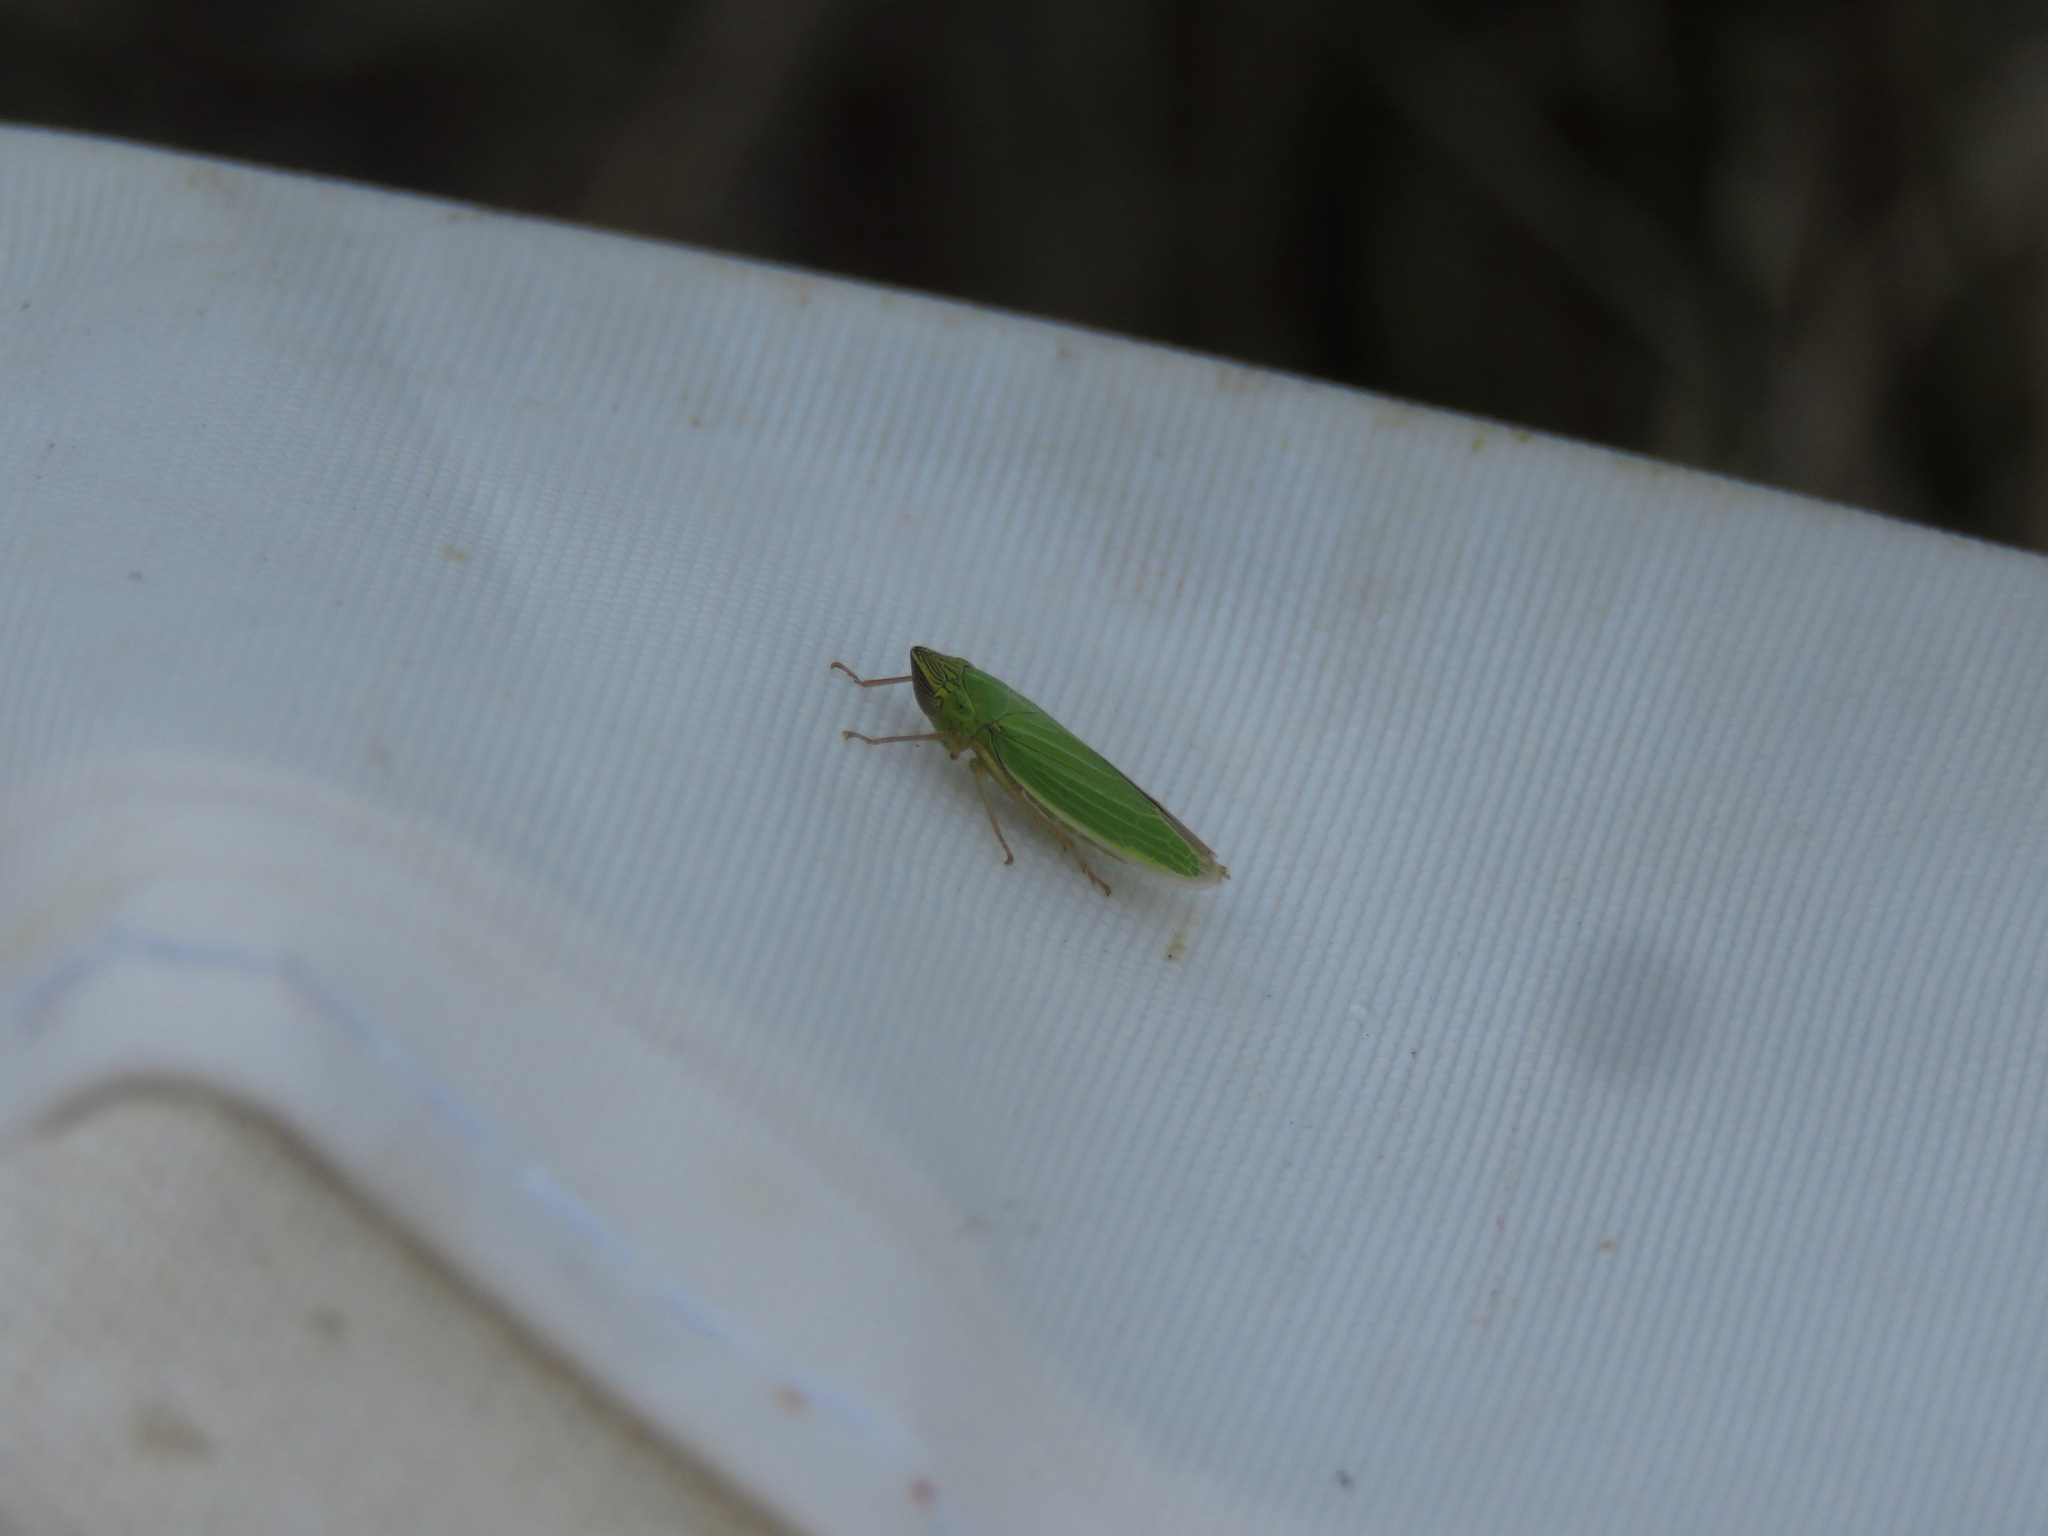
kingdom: Animalia
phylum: Arthropoda
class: Insecta
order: Hemiptera
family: Cicadellidae
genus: Draeculacephala
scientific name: Draeculacephala angulifera
